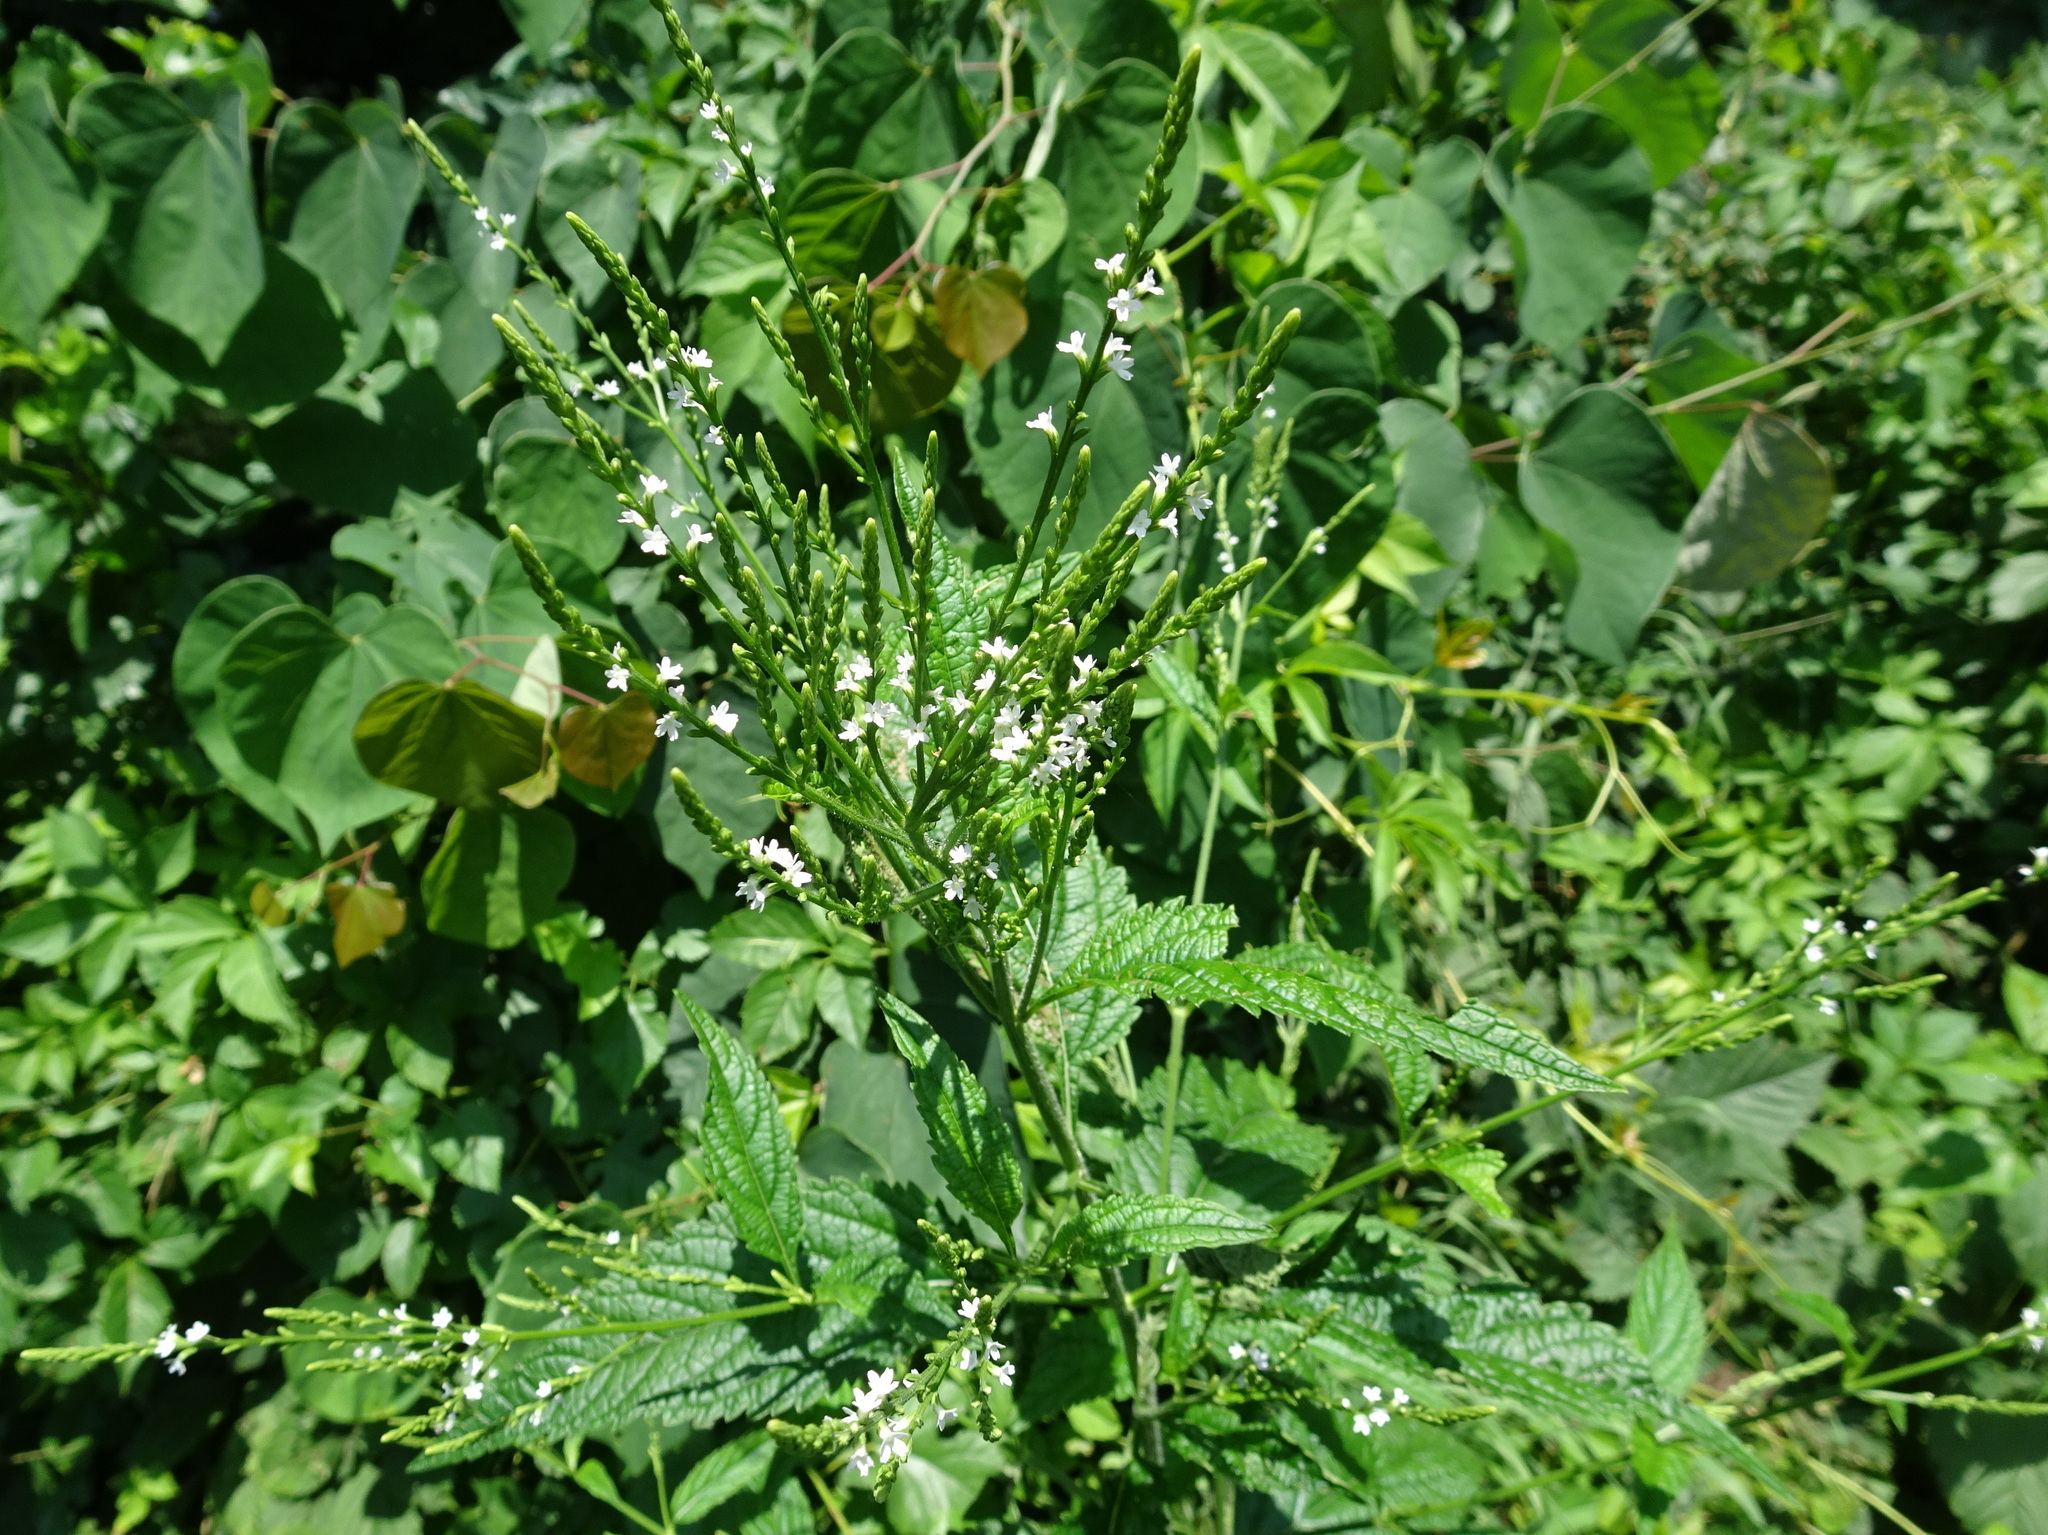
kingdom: Plantae
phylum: Tracheophyta
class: Magnoliopsida
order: Lamiales
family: Verbenaceae
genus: Verbena
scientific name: Verbena urticifolia
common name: Nettle-leaved vervain
